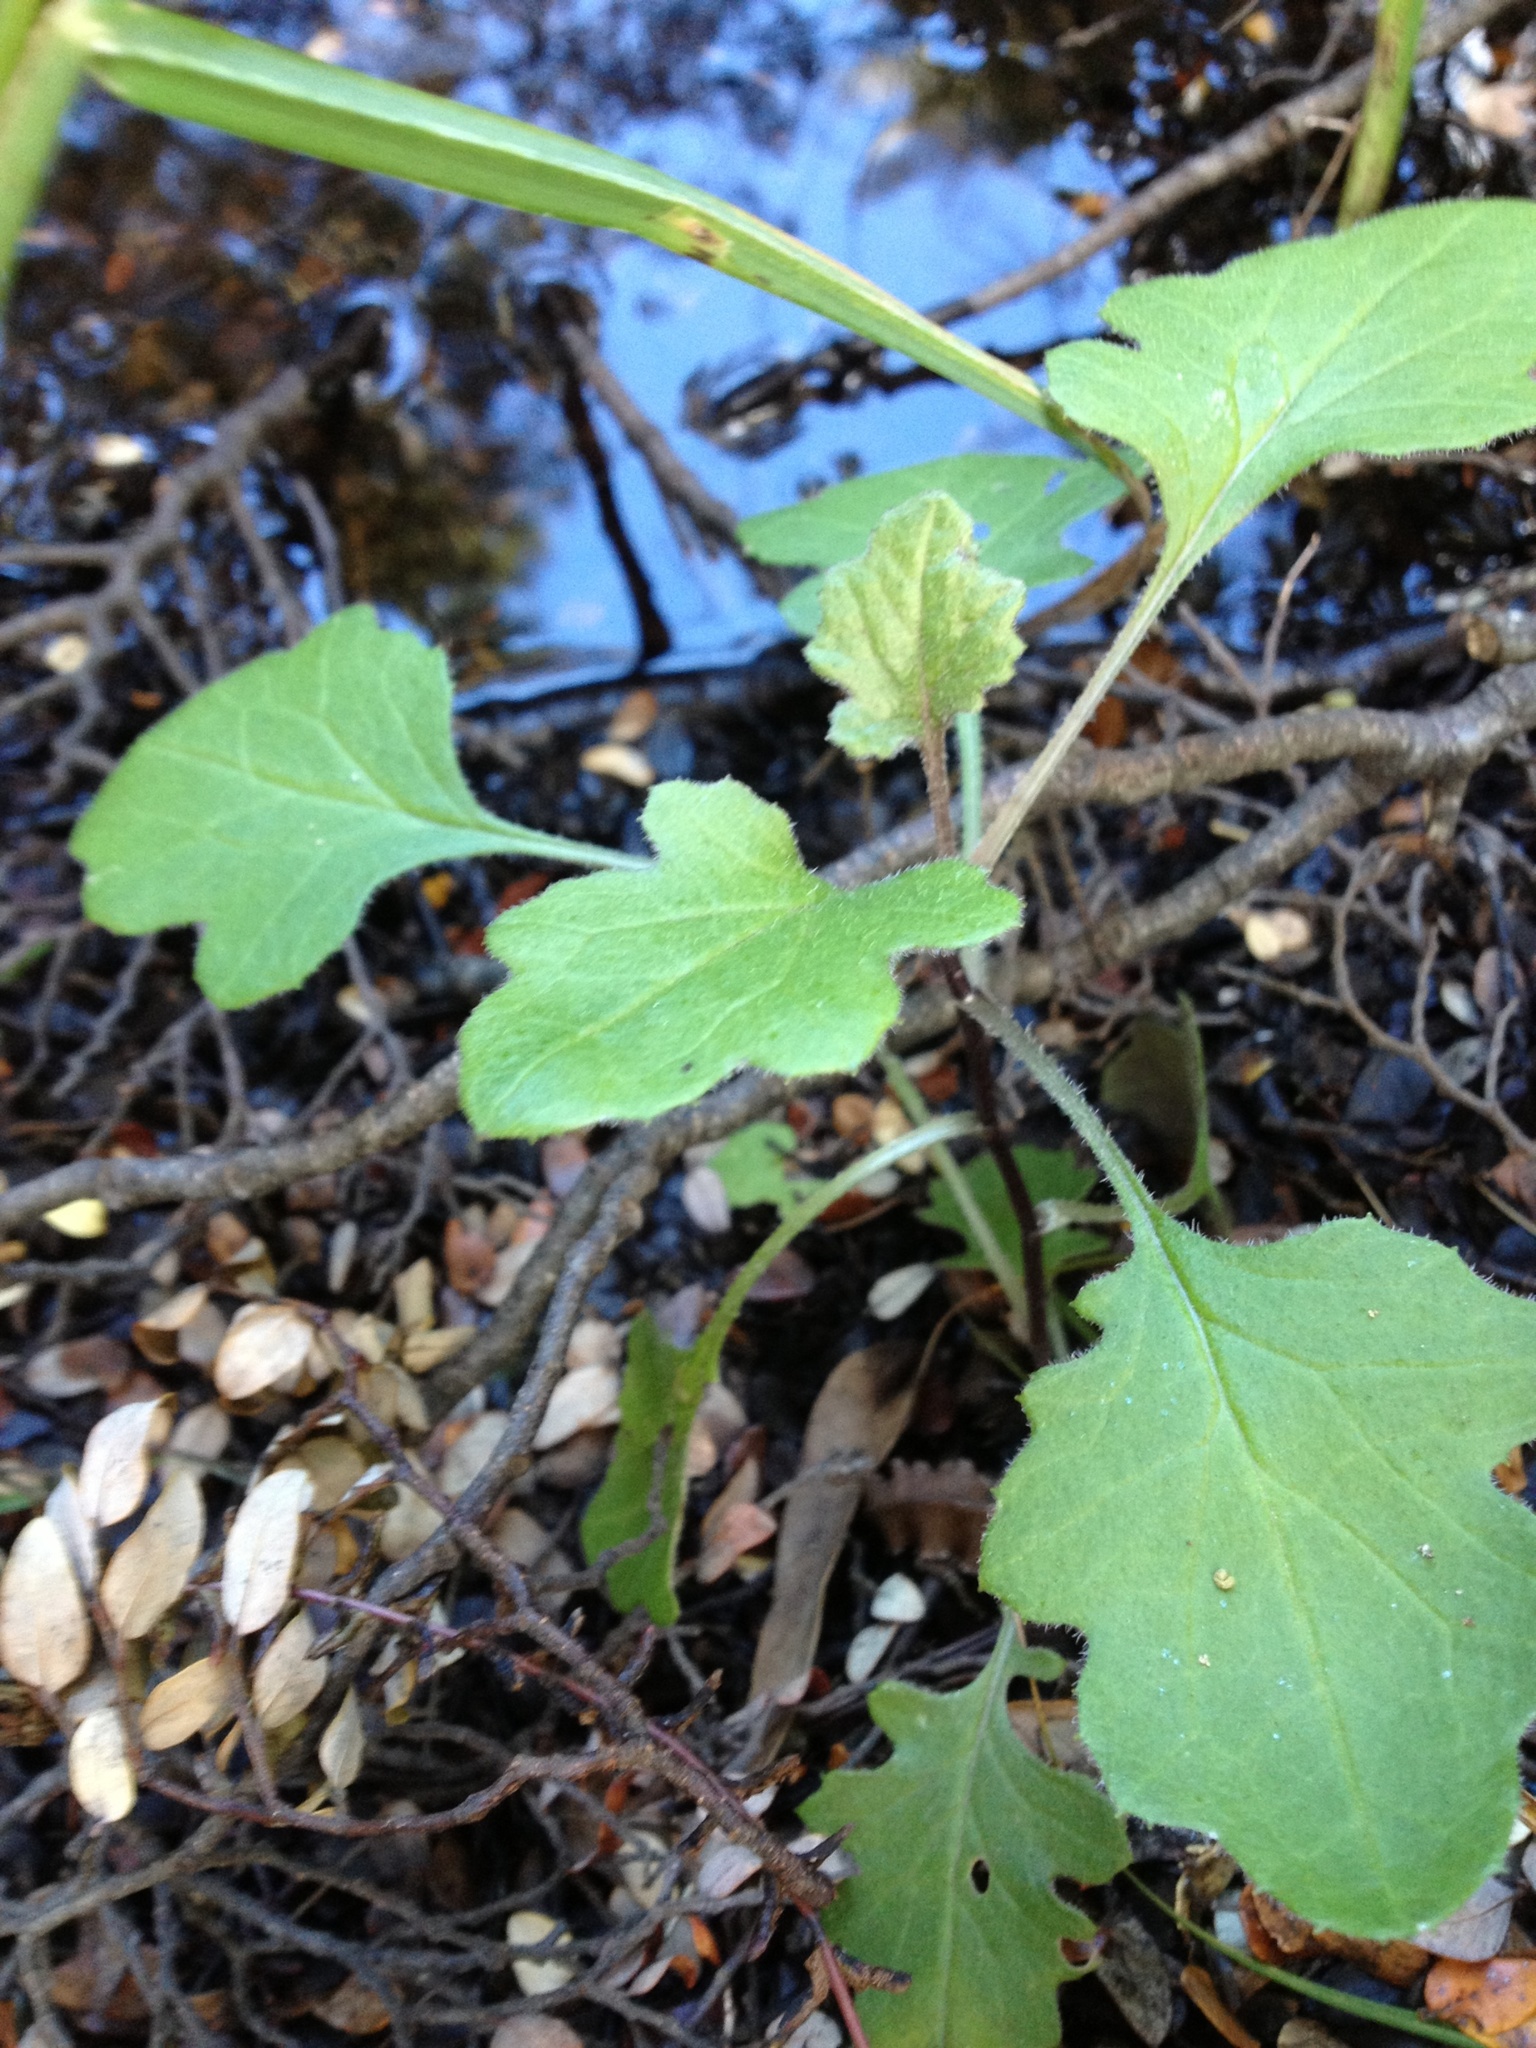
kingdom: Plantae
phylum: Tracheophyta
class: Magnoliopsida
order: Asterales
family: Asteraceae
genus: Senecio
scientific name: Senecio wairauensis
